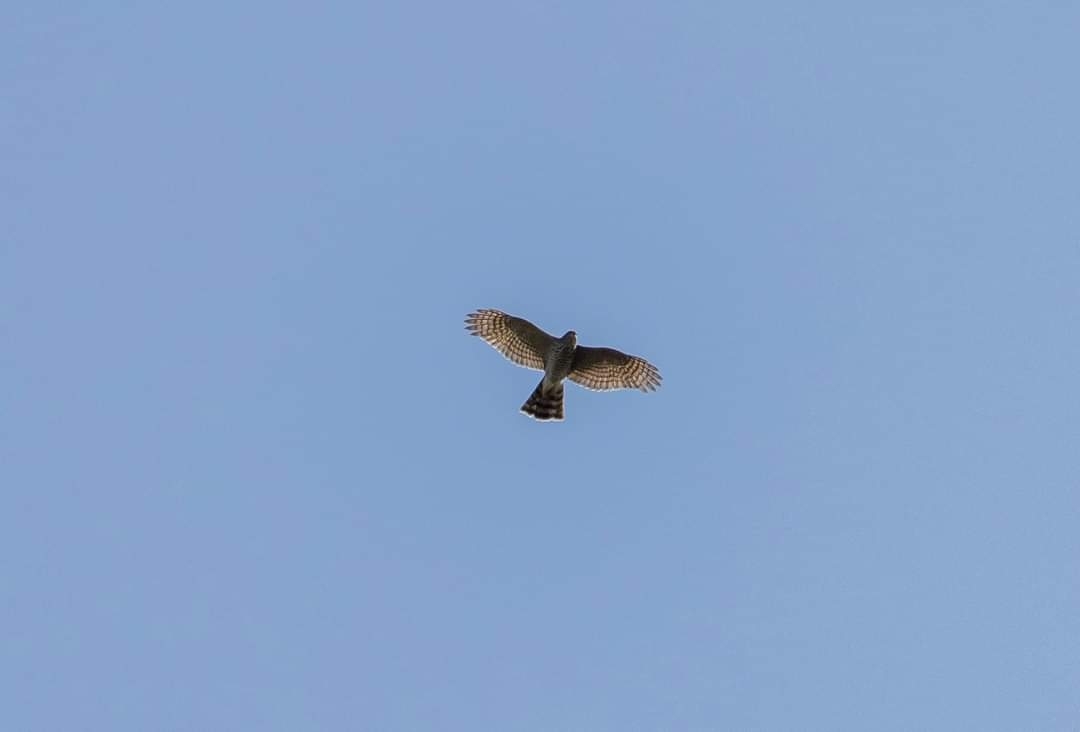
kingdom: Animalia
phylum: Chordata
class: Aves
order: Accipitriformes
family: Accipitridae
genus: Accipiter
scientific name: Accipiter nisus
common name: Eurasian sparrowhawk
